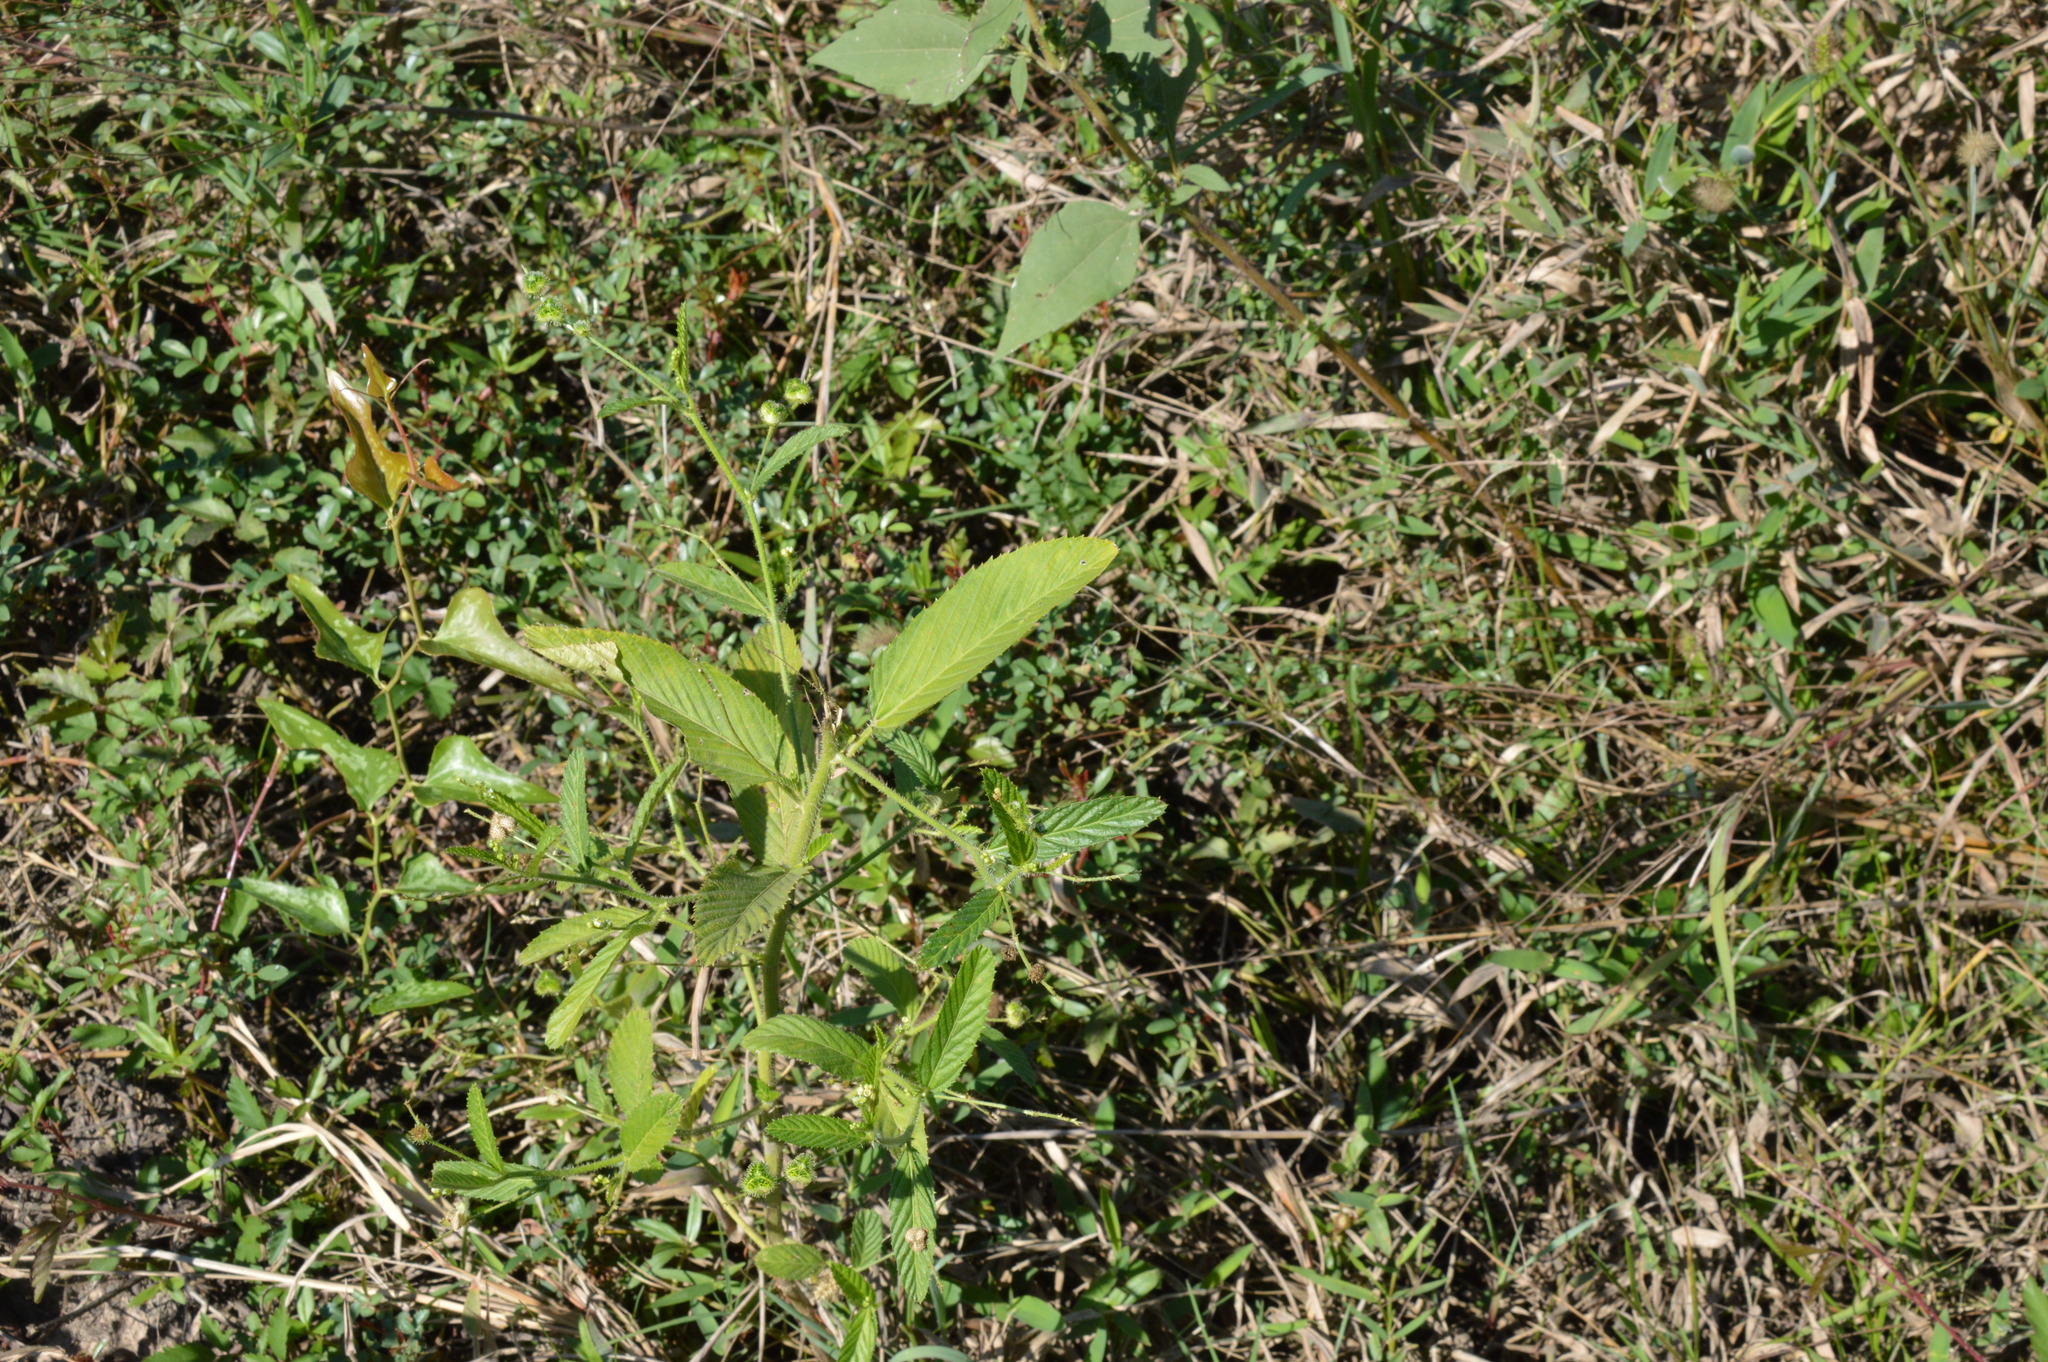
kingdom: Plantae
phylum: Tracheophyta
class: Magnoliopsida
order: Malpighiales
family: Euphorbiaceae
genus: Caperonia
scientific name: Caperonia palustris
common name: Sacatrapo
